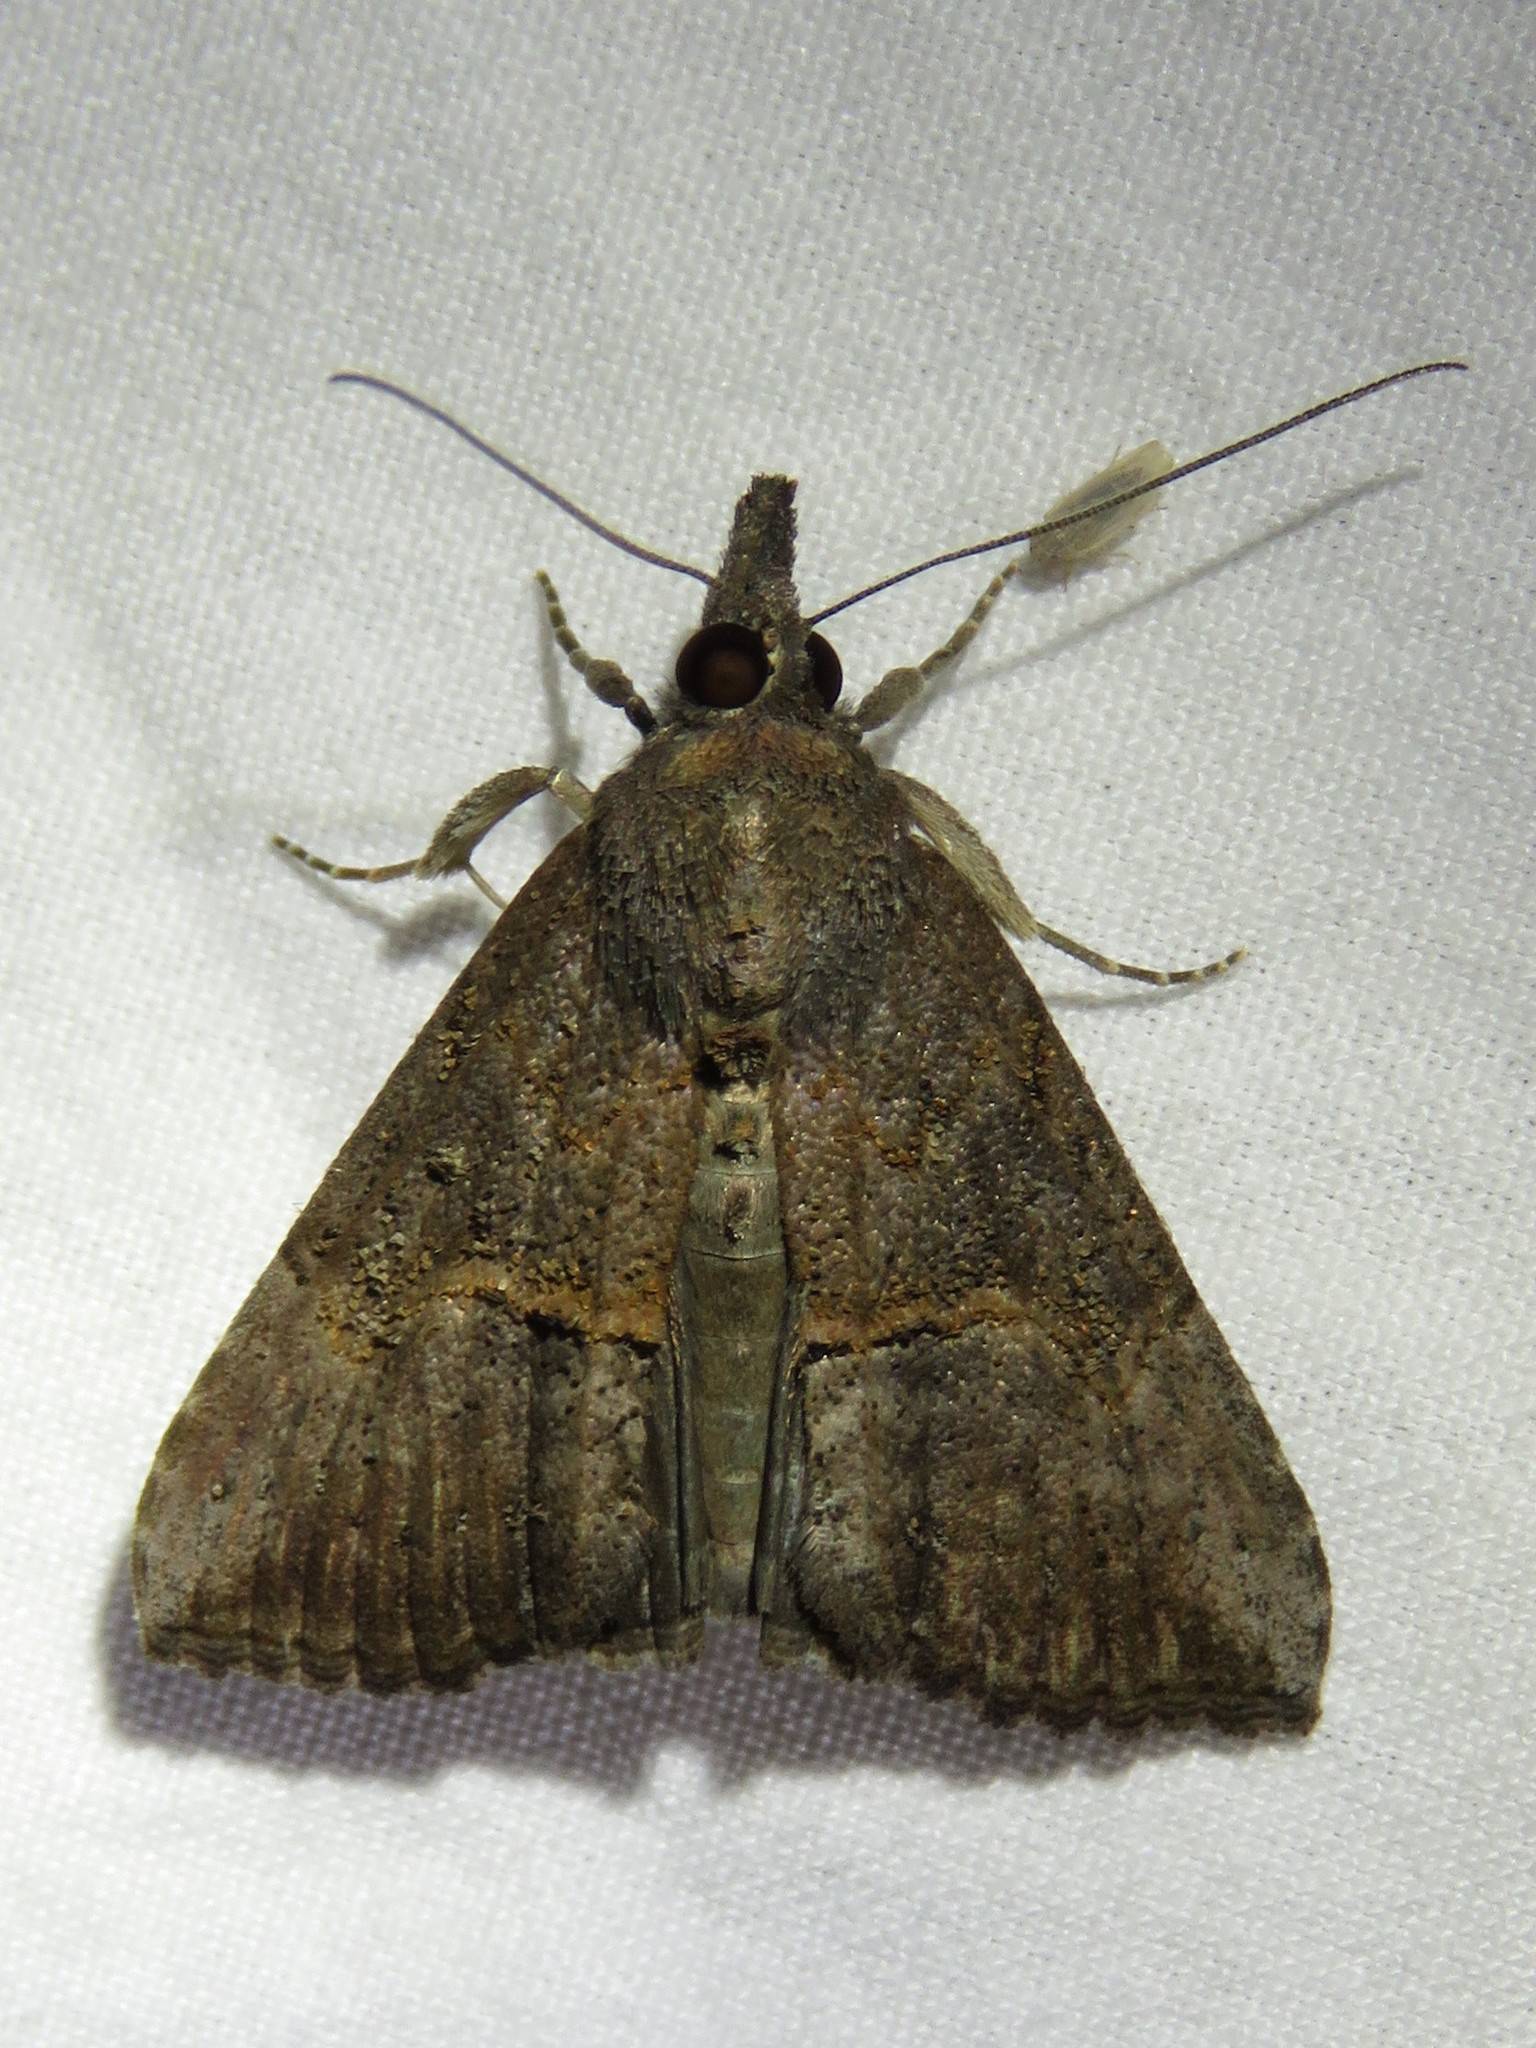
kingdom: Animalia
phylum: Arthropoda
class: Insecta
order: Lepidoptera
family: Erebidae
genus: Hypena
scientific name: Hypena scabra
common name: Green cloverworm
